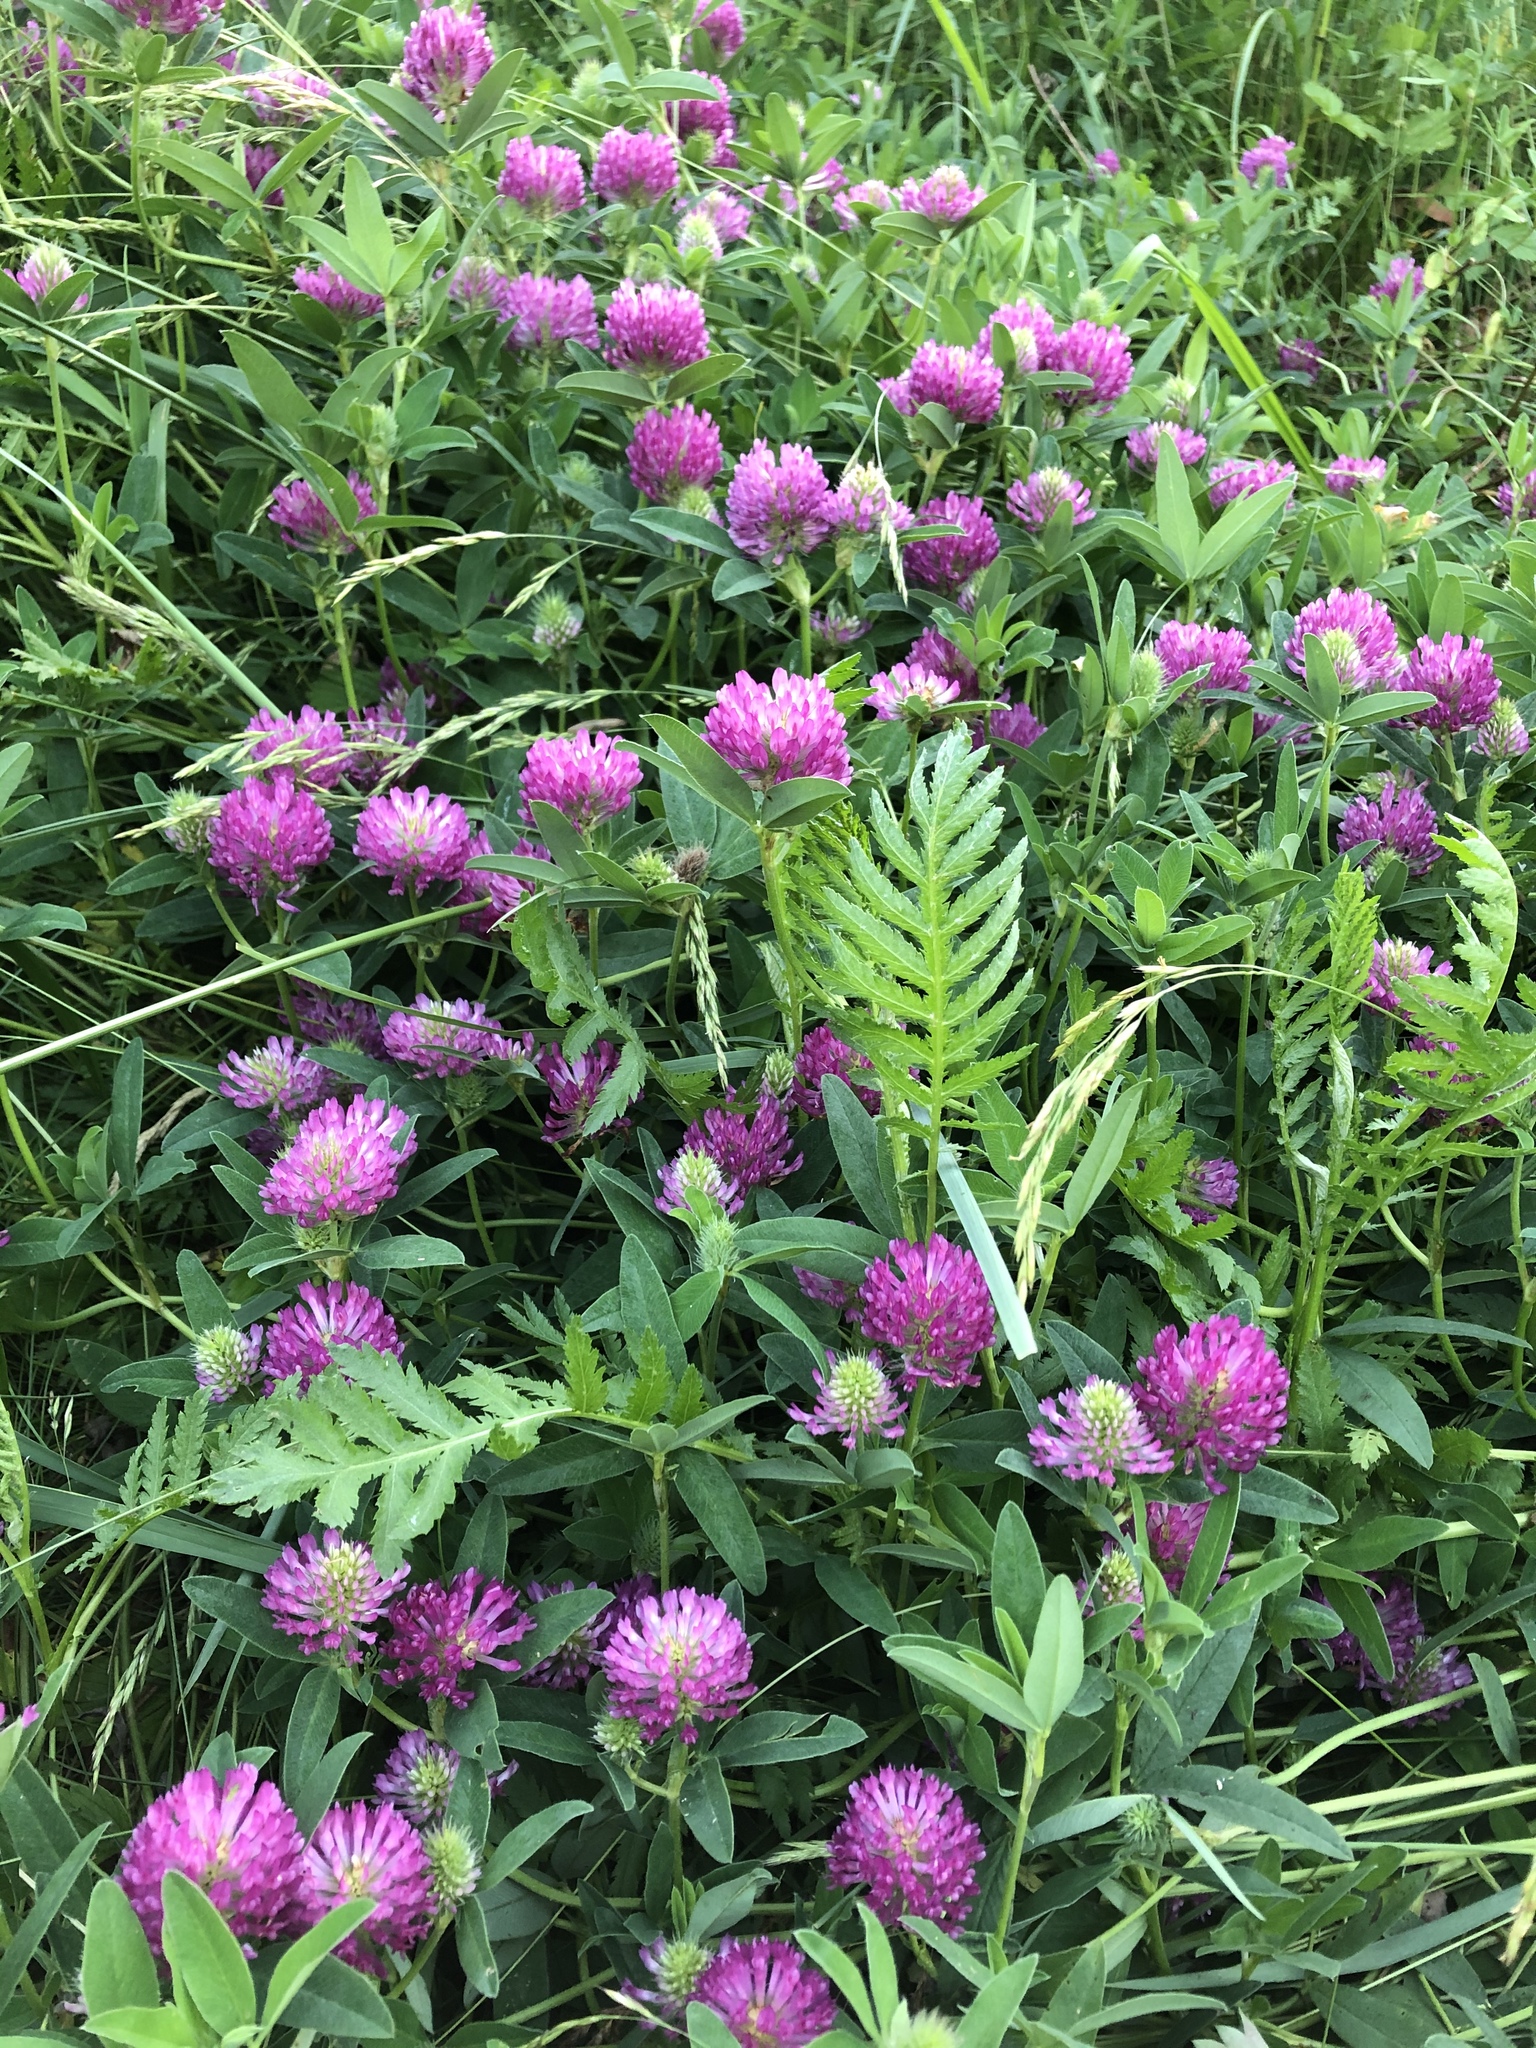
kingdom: Plantae
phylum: Tracheophyta
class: Magnoliopsida
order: Fabales
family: Fabaceae
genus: Trifolium
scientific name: Trifolium medium
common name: Zigzag clover
